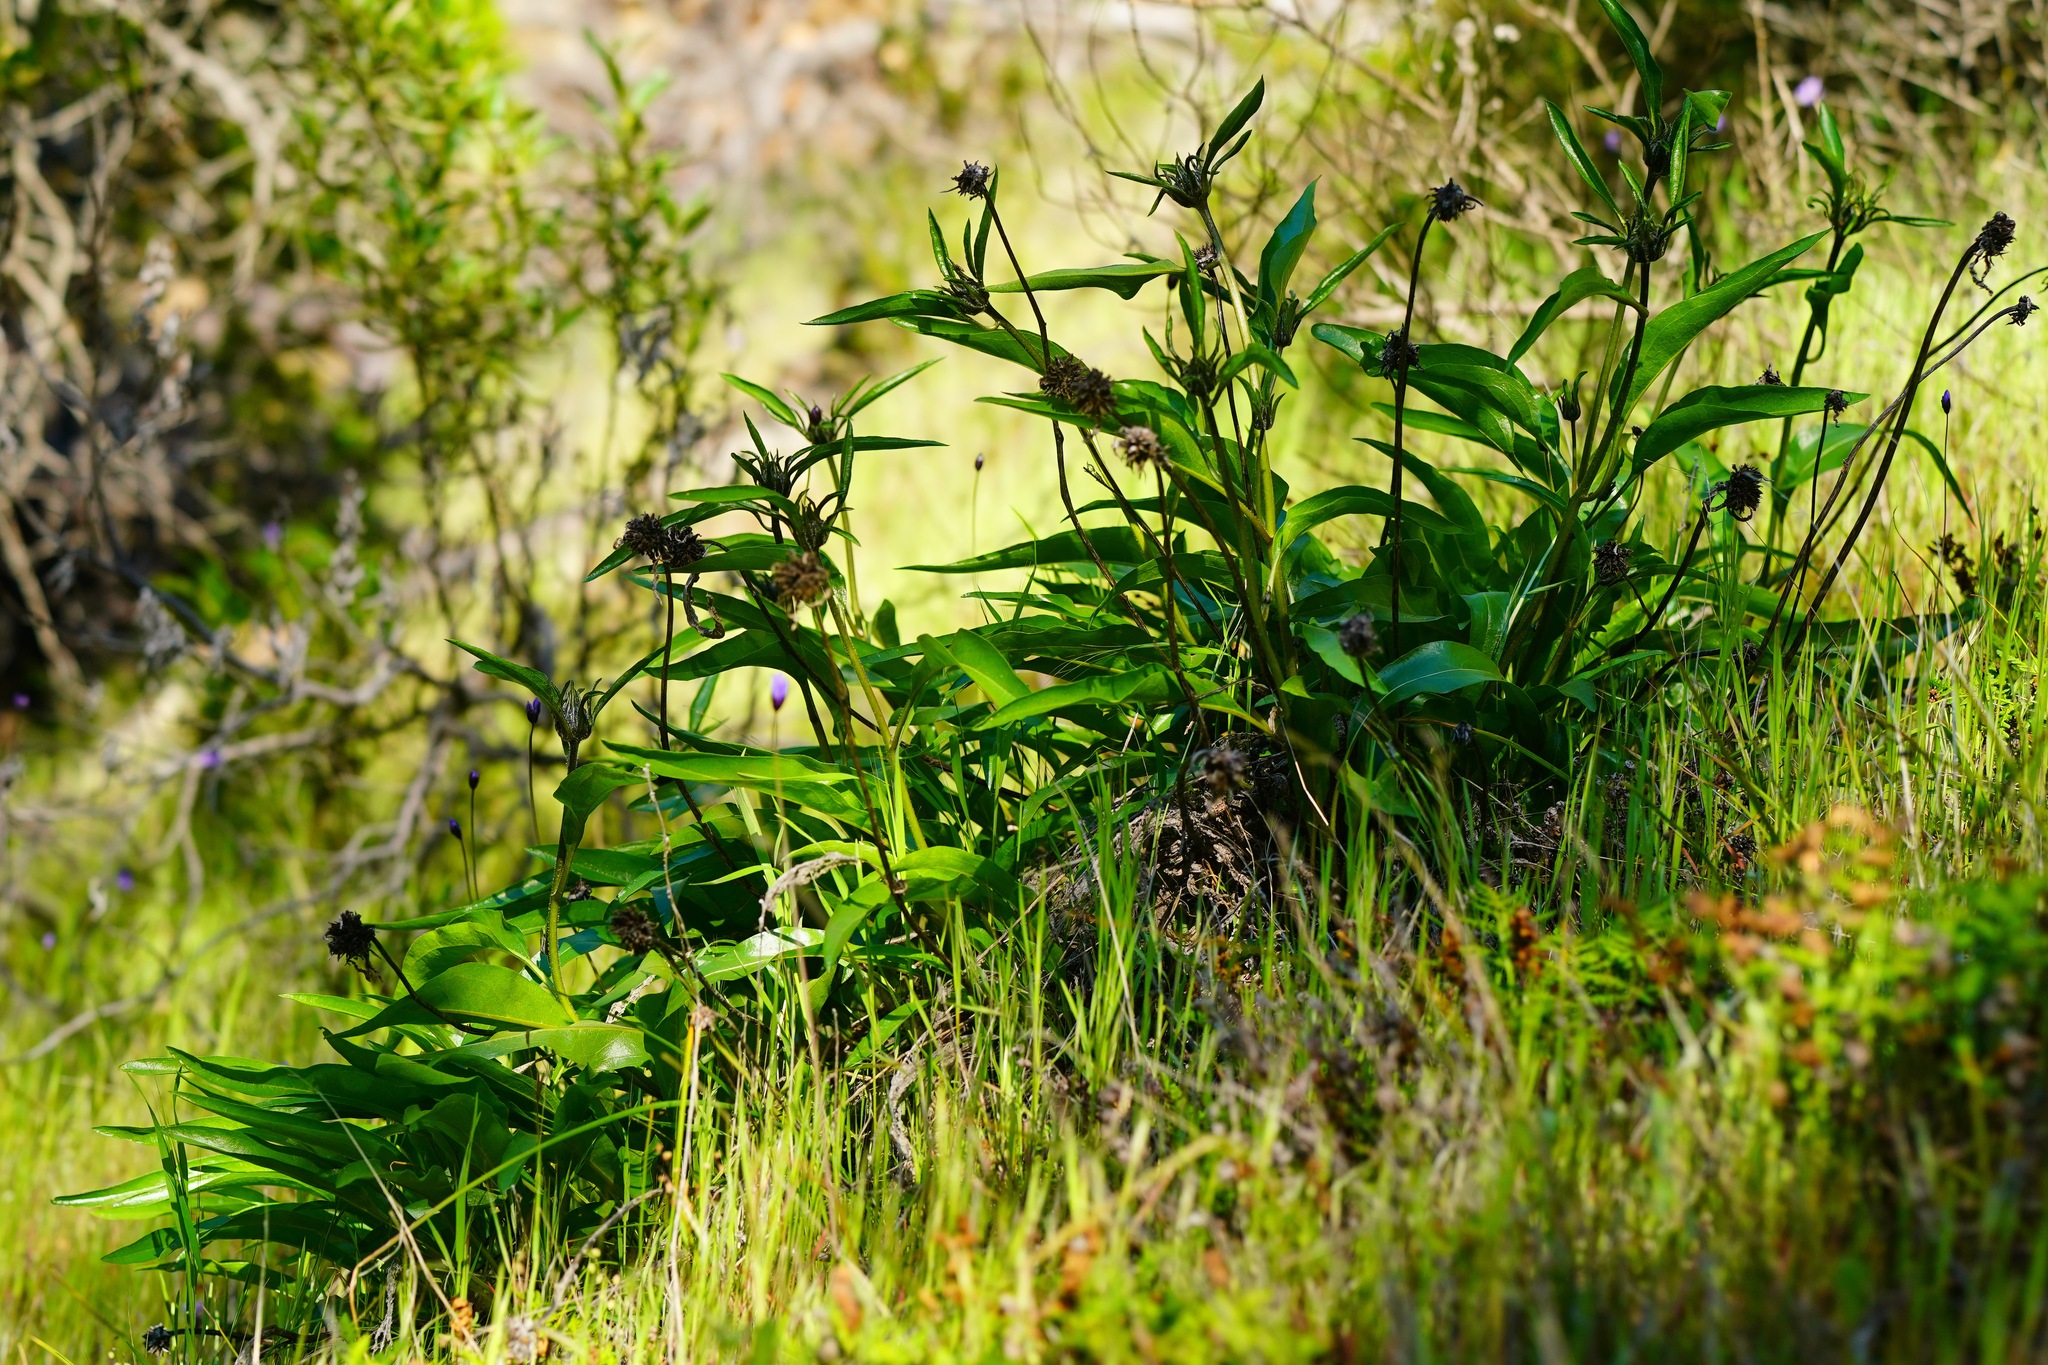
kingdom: Plantae
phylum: Tracheophyta
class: Magnoliopsida
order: Asterales
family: Asteraceae
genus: Helianthella
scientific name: Helianthella castanea
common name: Diablo helianthella
